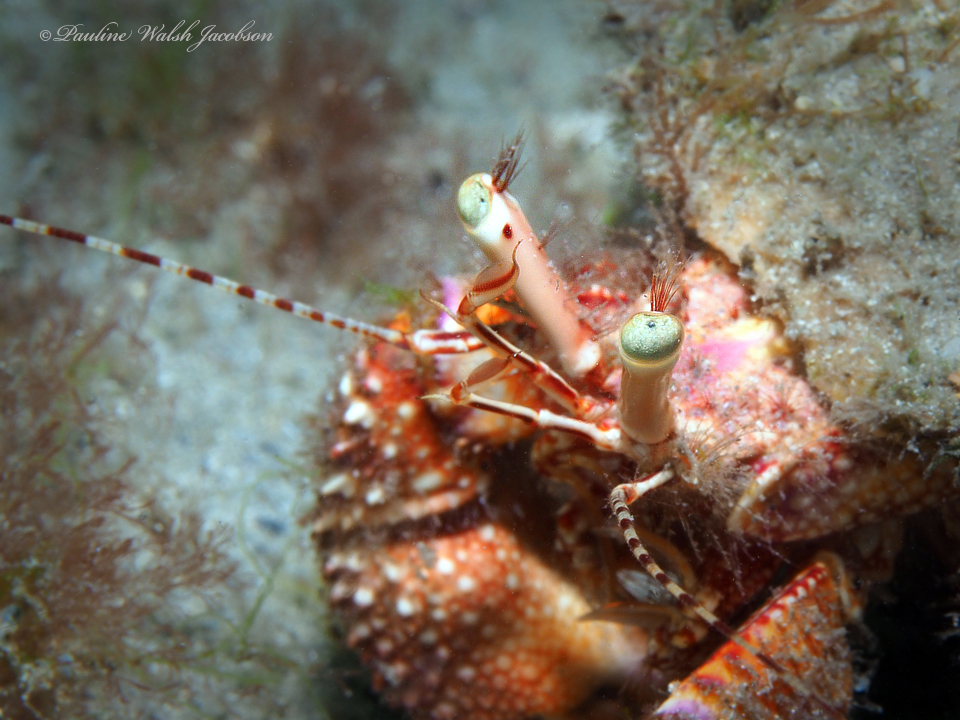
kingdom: Animalia
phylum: Arthropoda
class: Malacostraca
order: Decapoda
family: Diogenidae
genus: Petrochirus
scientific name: Petrochirus diogenes
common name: Giant hermit crab
